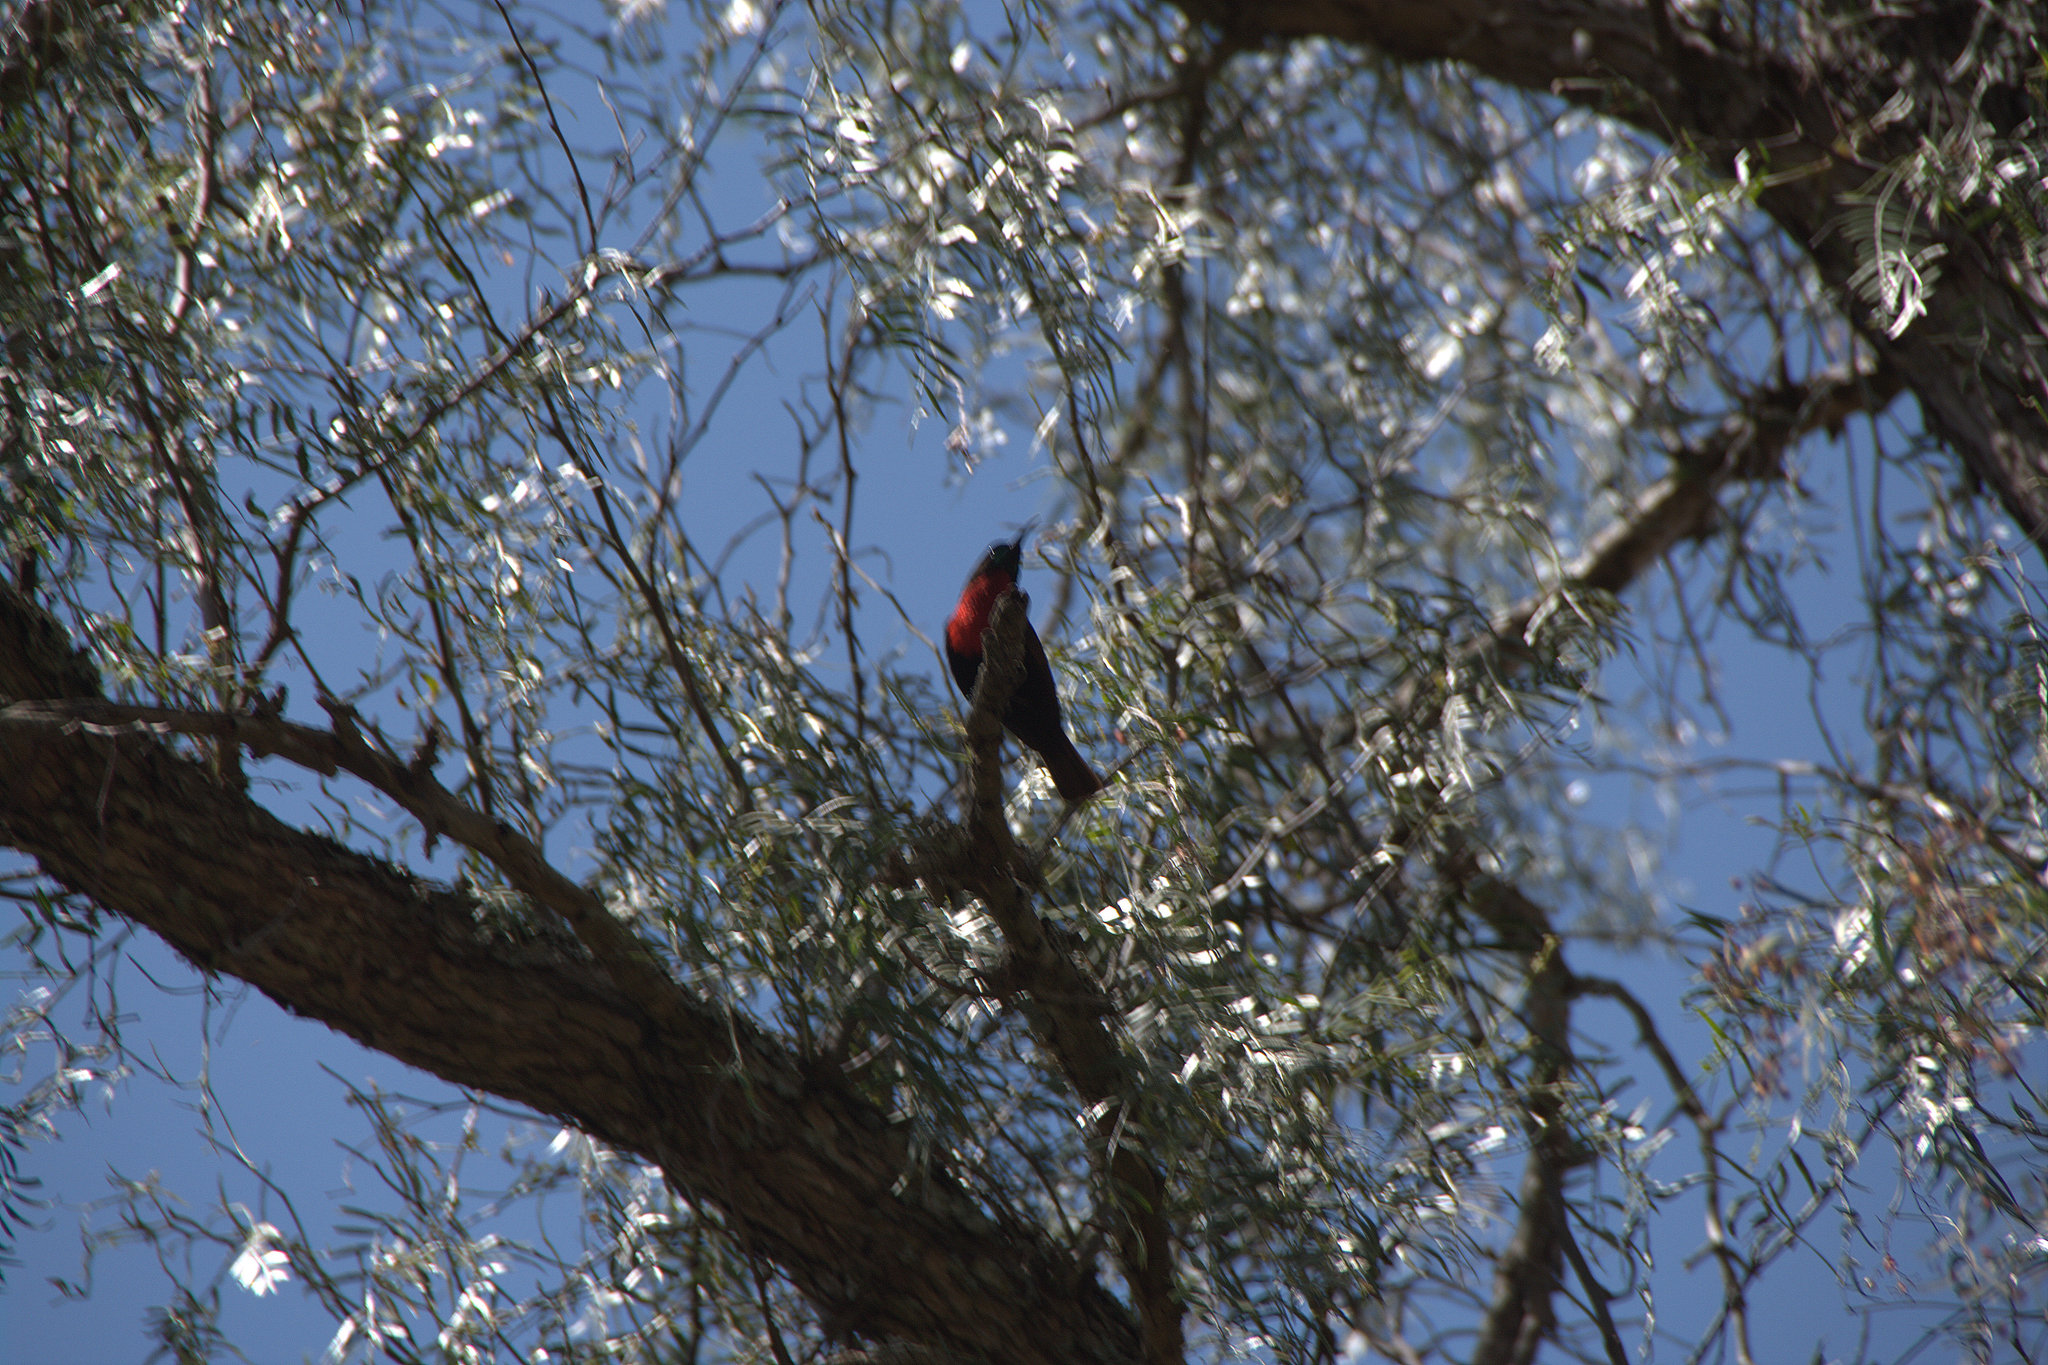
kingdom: Animalia
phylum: Chordata
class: Aves
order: Passeriformes
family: Nectariniidae
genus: Chalcomitra
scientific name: Chalcomitra senegalensis
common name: Scarlet-chested sunbird
